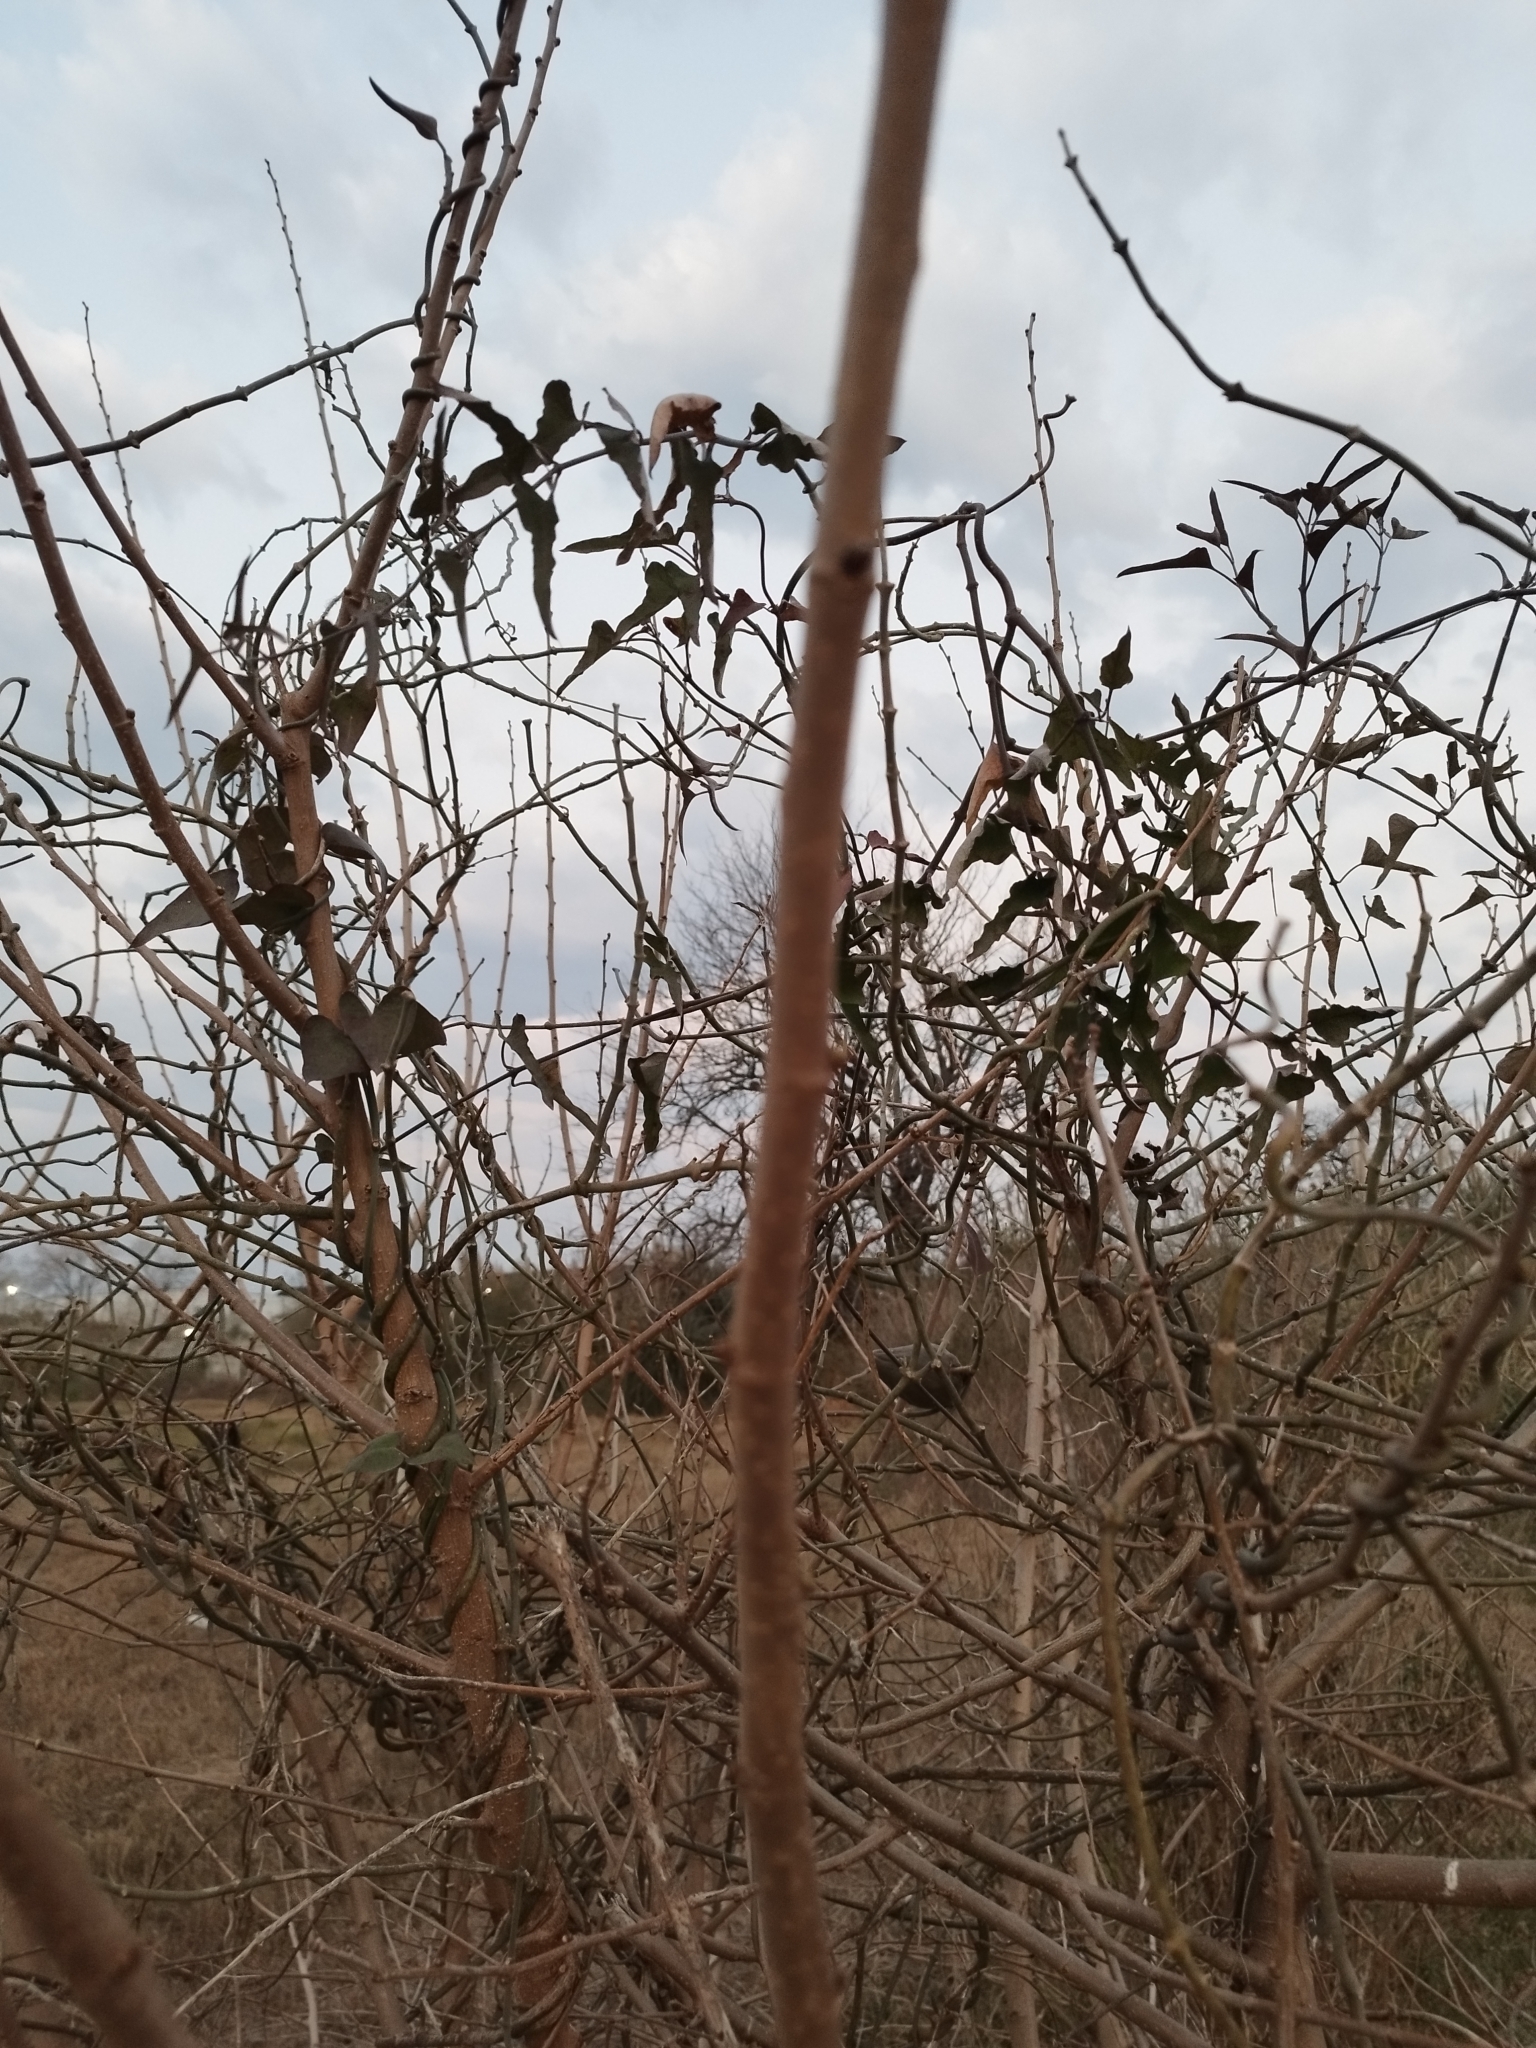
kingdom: Plantae
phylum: Tracheophyta
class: Magnoliopsida
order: Gentianales
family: Apocynaceae
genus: Araujia
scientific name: Araujia odorata
